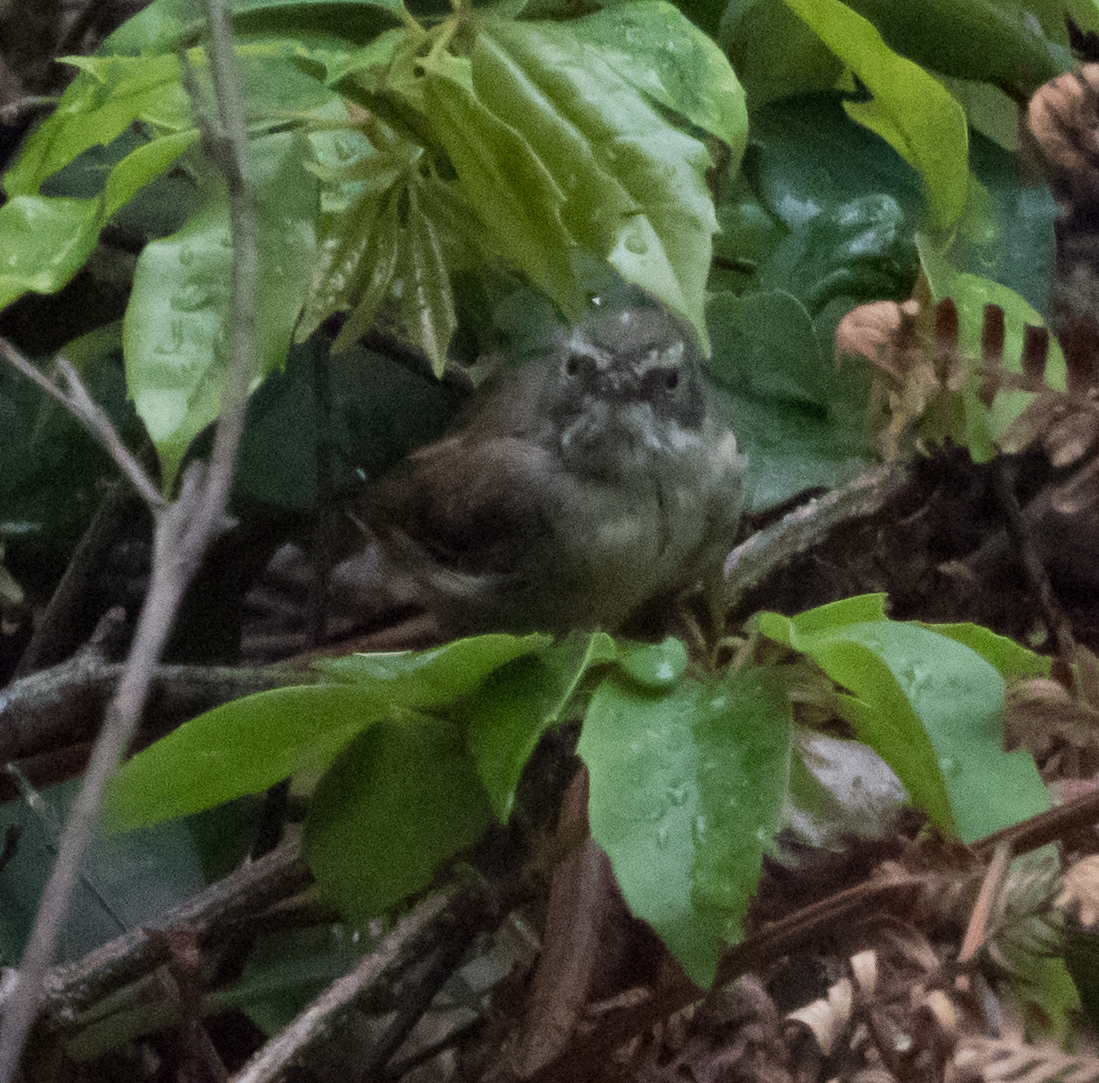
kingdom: Animalia
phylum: Chordata
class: Aves
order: Passeriformes
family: Acanthizidae
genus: Sericornis
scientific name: Sericornis frontalis
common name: White-browed scrubwren
